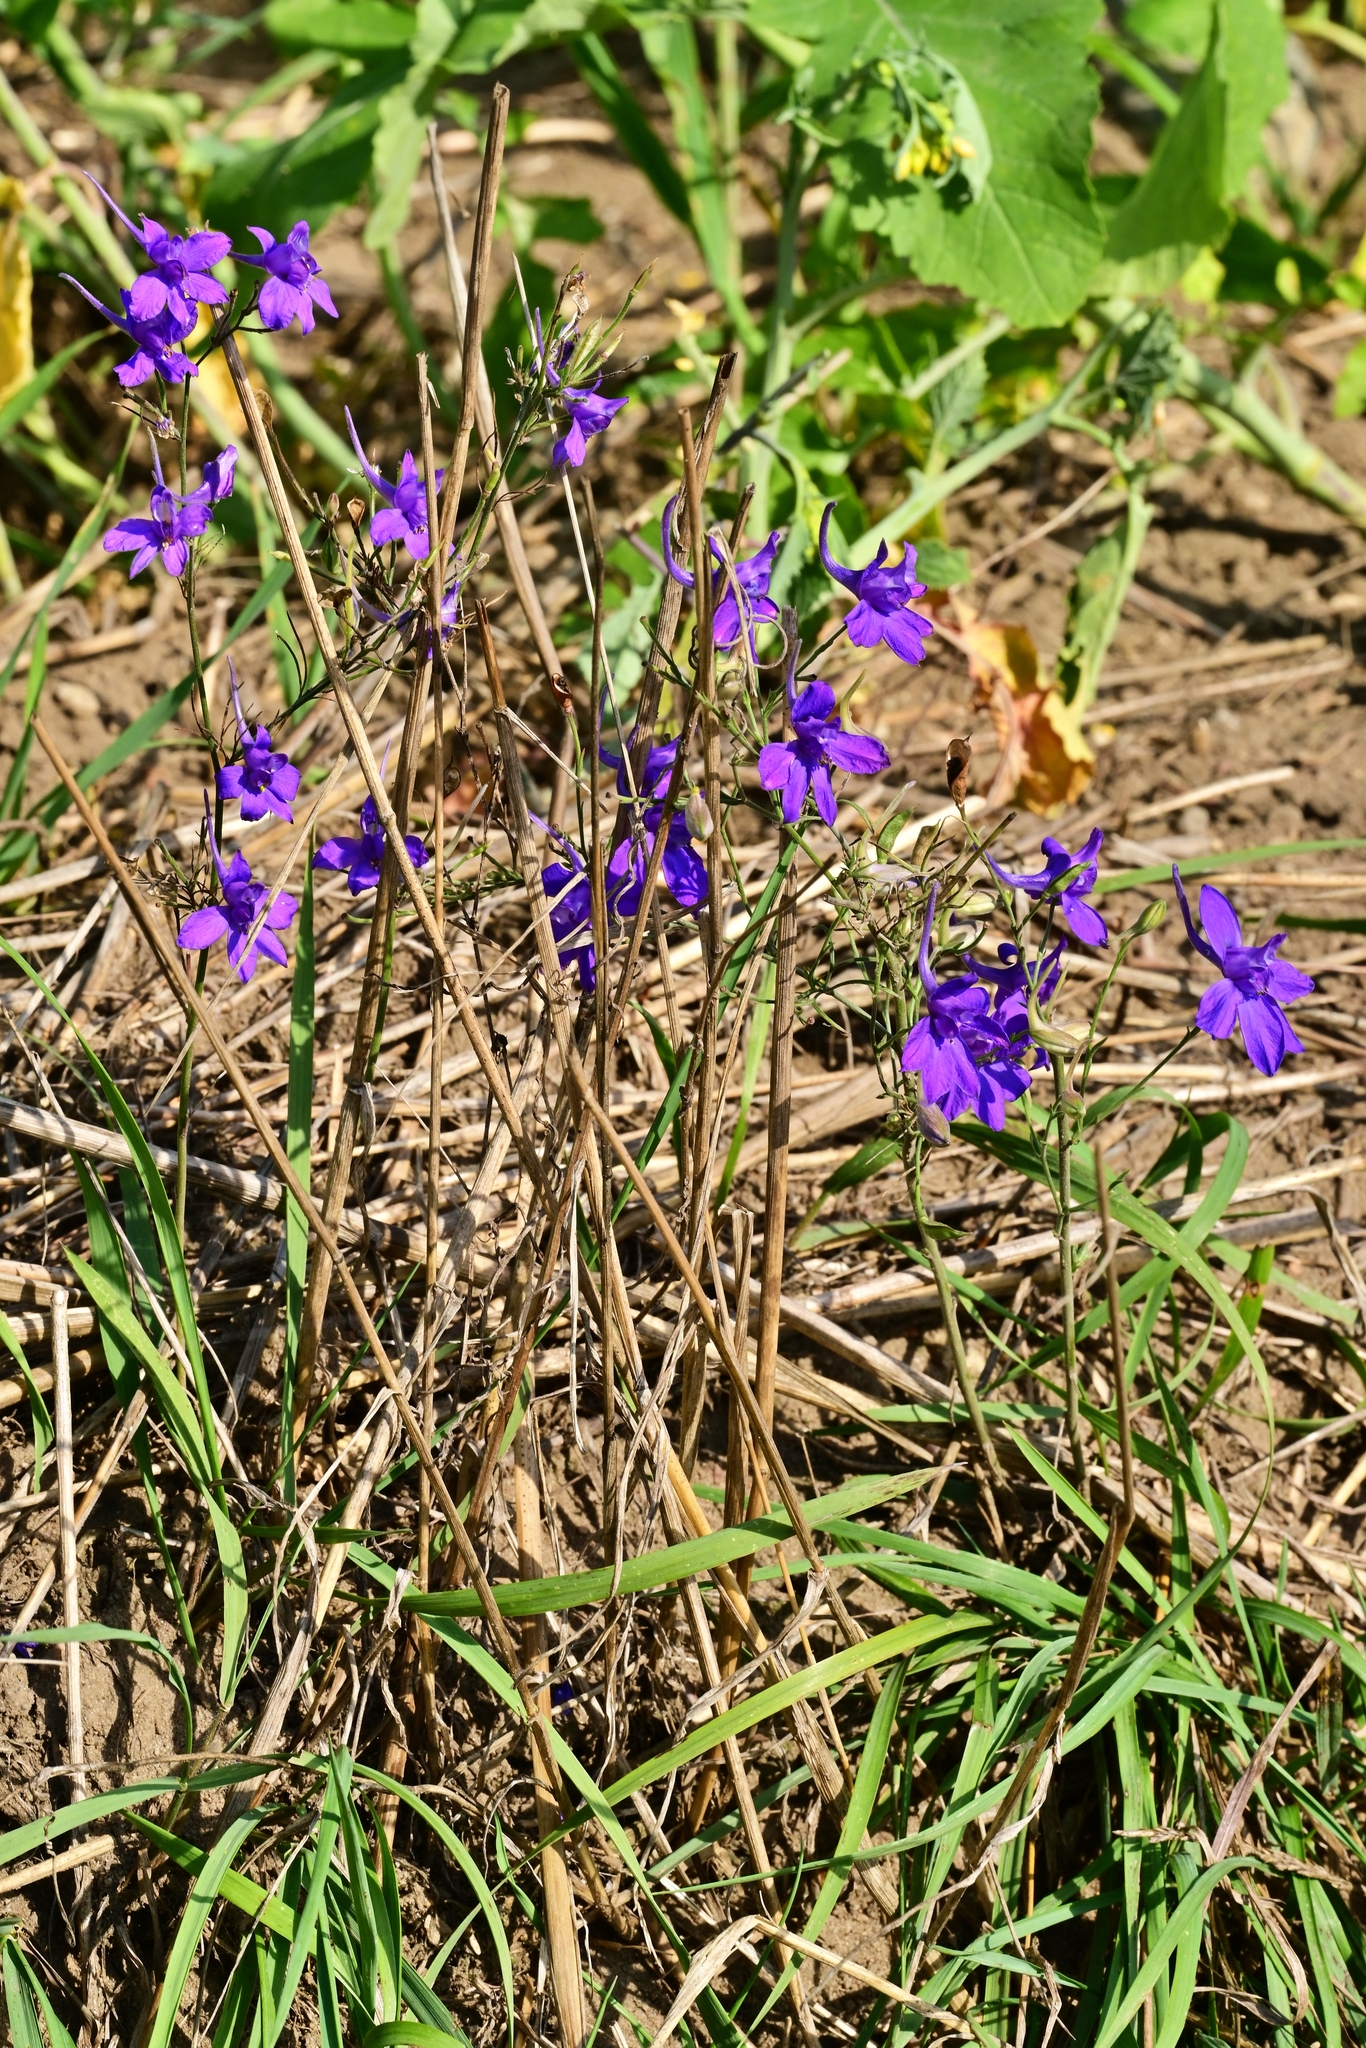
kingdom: Plantae
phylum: Tracheophyta
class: Magnoliopsida
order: Ranunculales
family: Ranunculaceae
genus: Delphinium
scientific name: Delphinium consolida
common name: Branching larkspur
